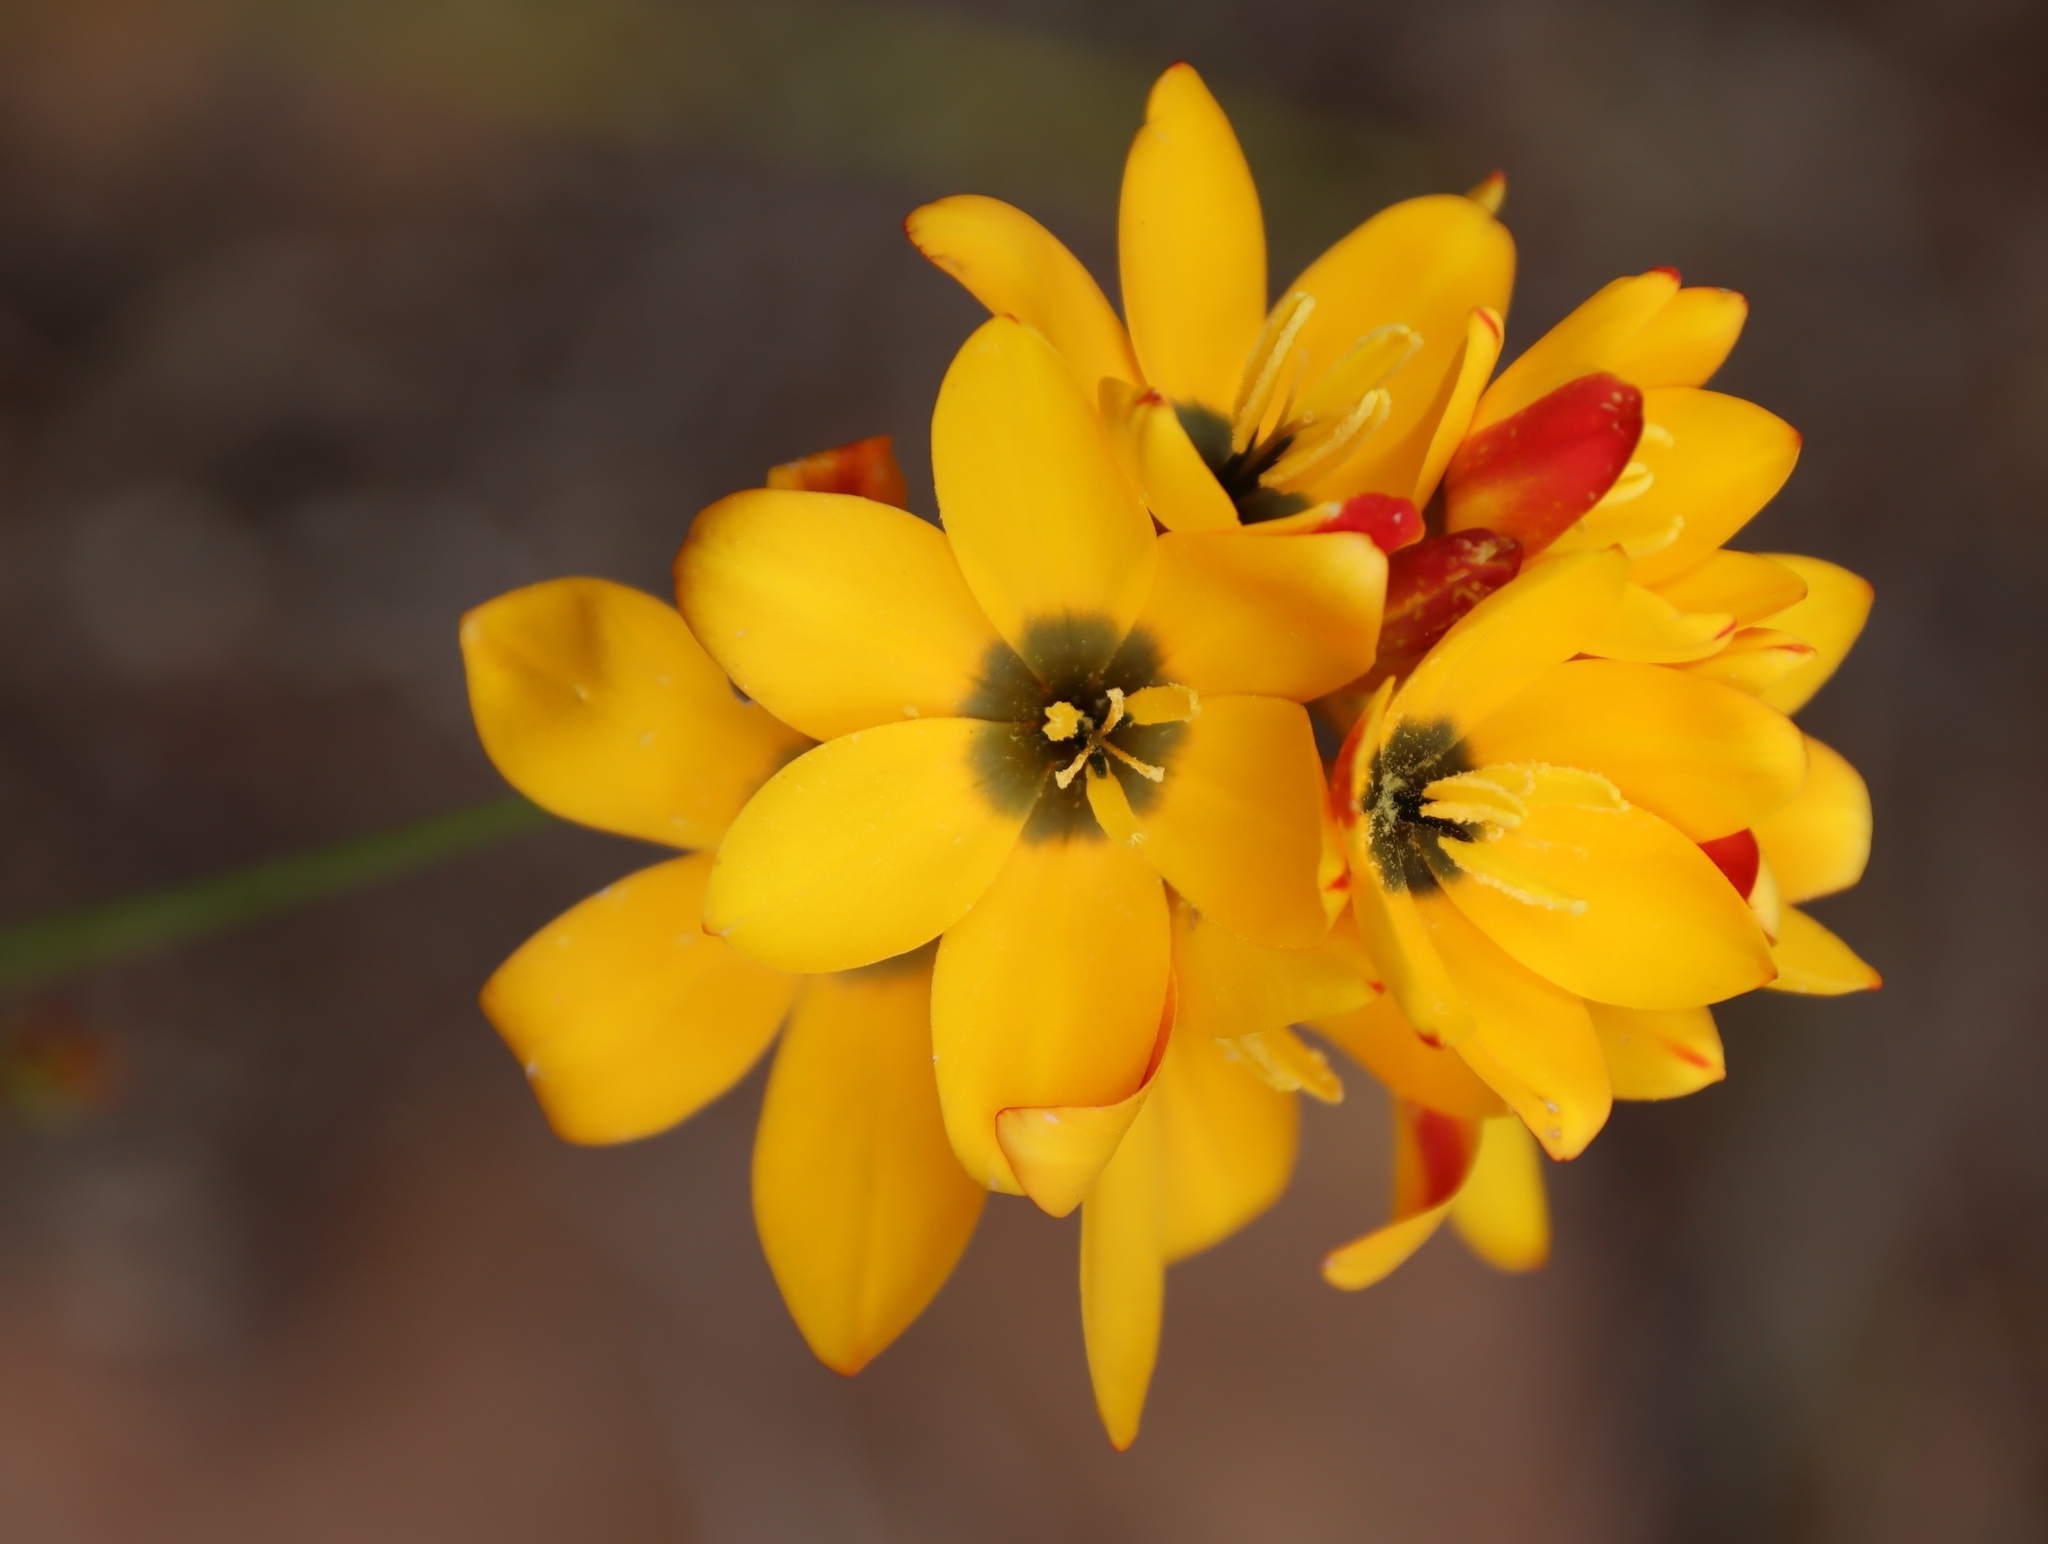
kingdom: Plantae
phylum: Tracheophyta
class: Liliopsida
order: Asparagales
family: Iridaceae
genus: Ixia
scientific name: Ixia dubia
